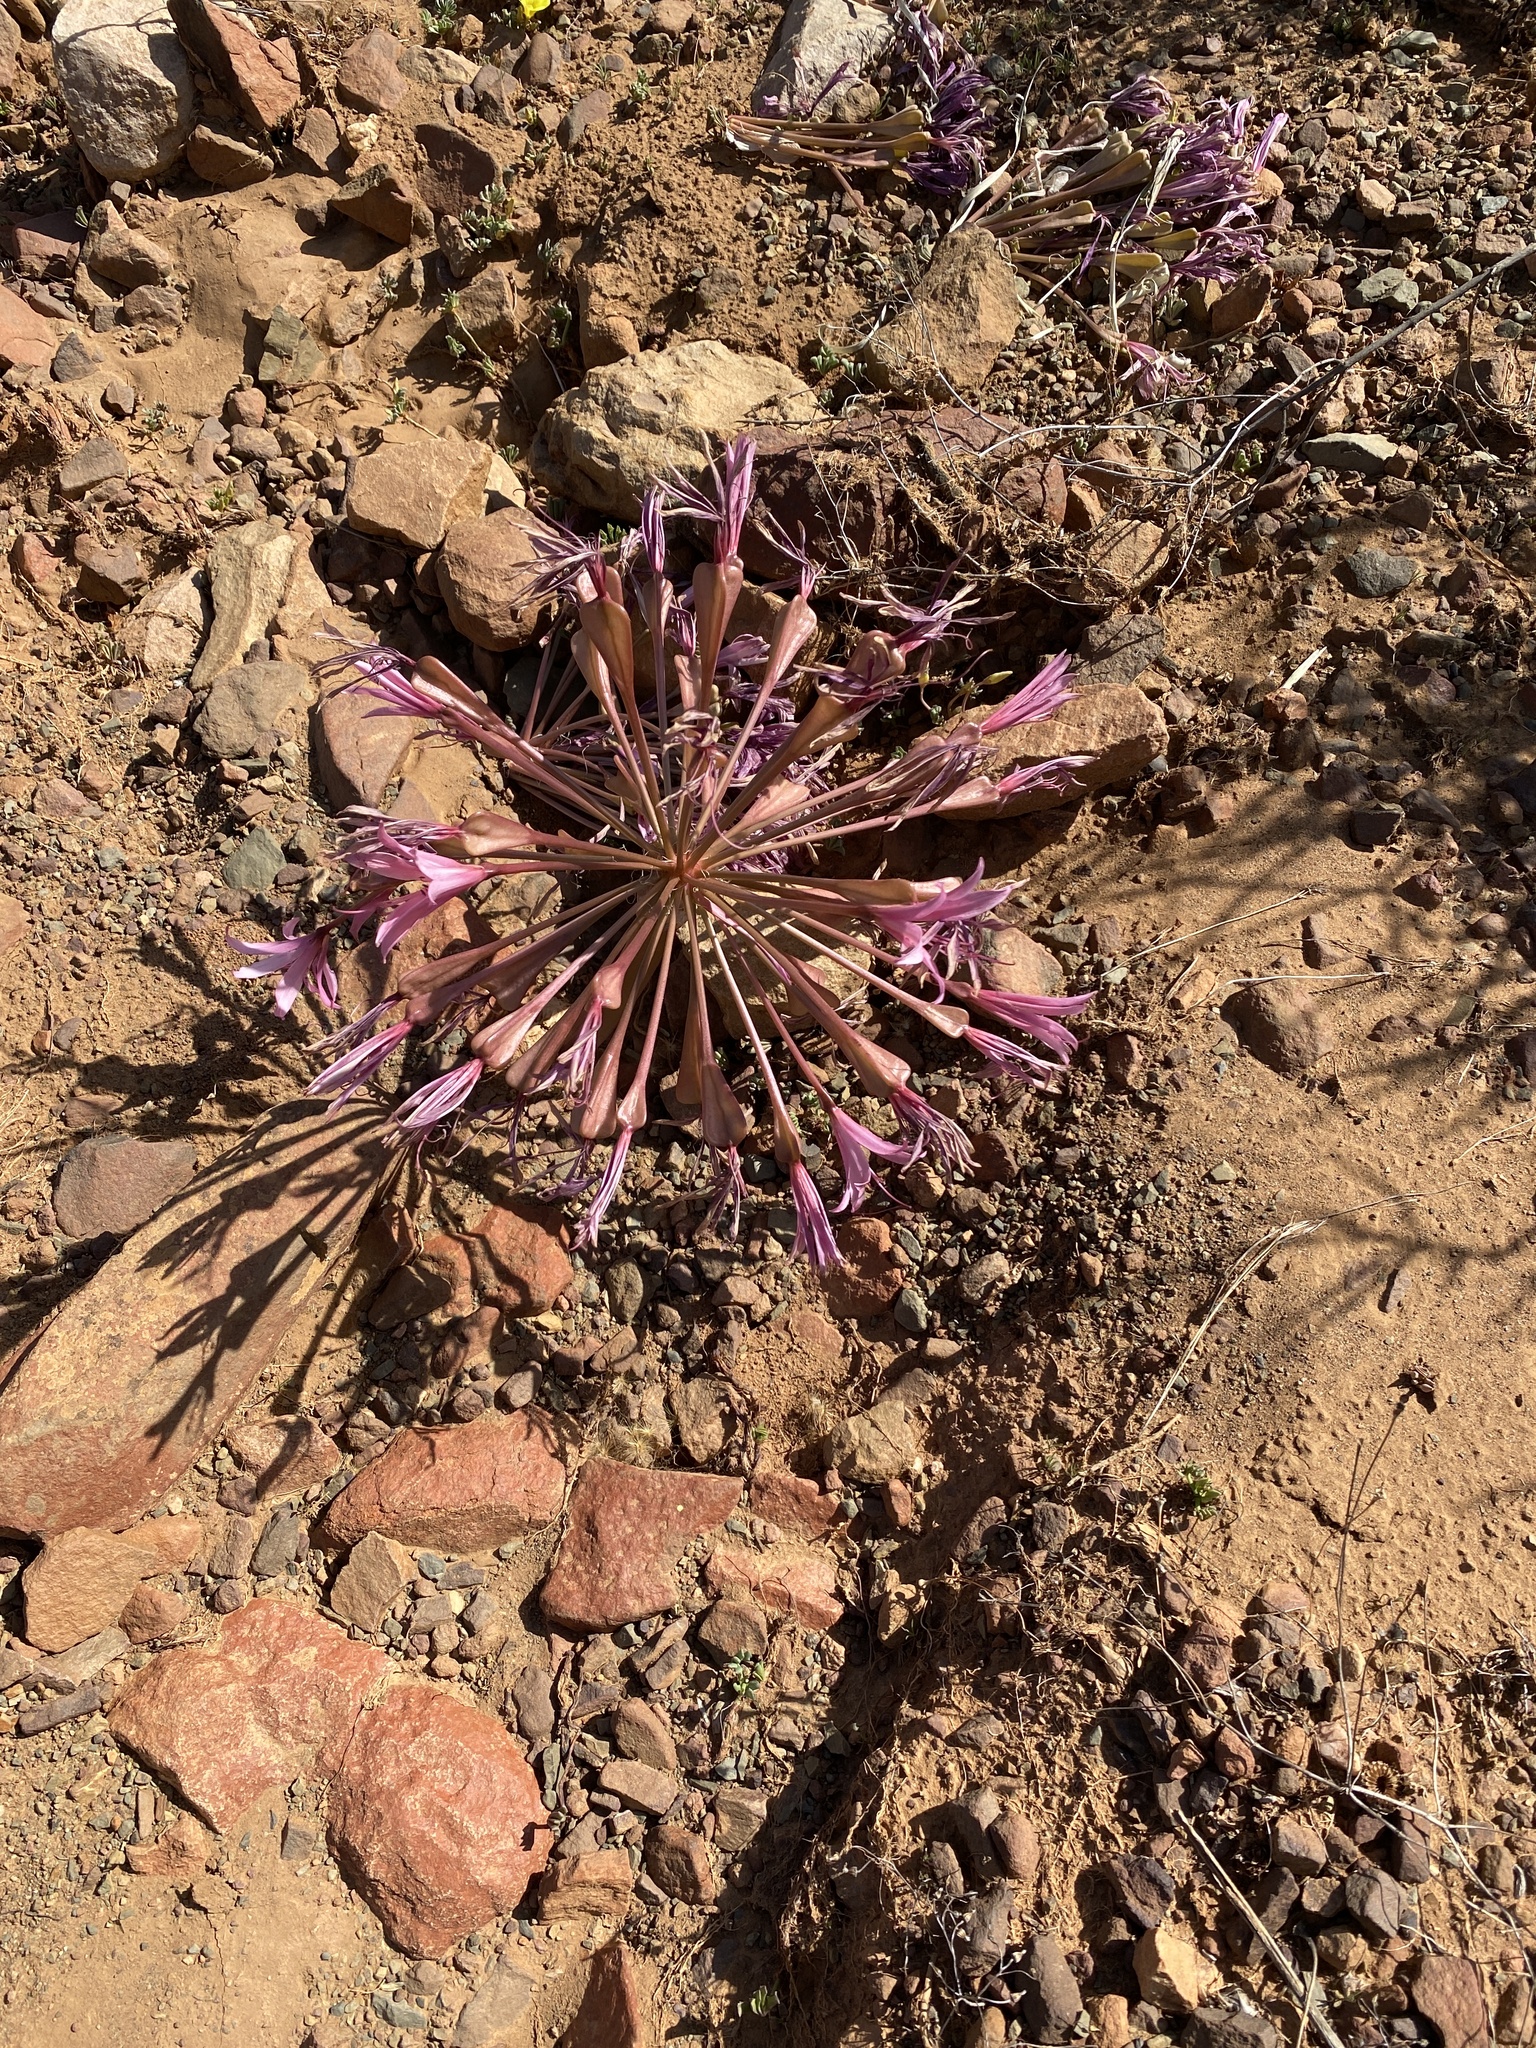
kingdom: Plantae
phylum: Tracheophyta
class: Liliopsida
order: Asparagales
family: Amaryllidaceae
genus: Brunsvigia
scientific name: Brunsvigia bosmaniae
